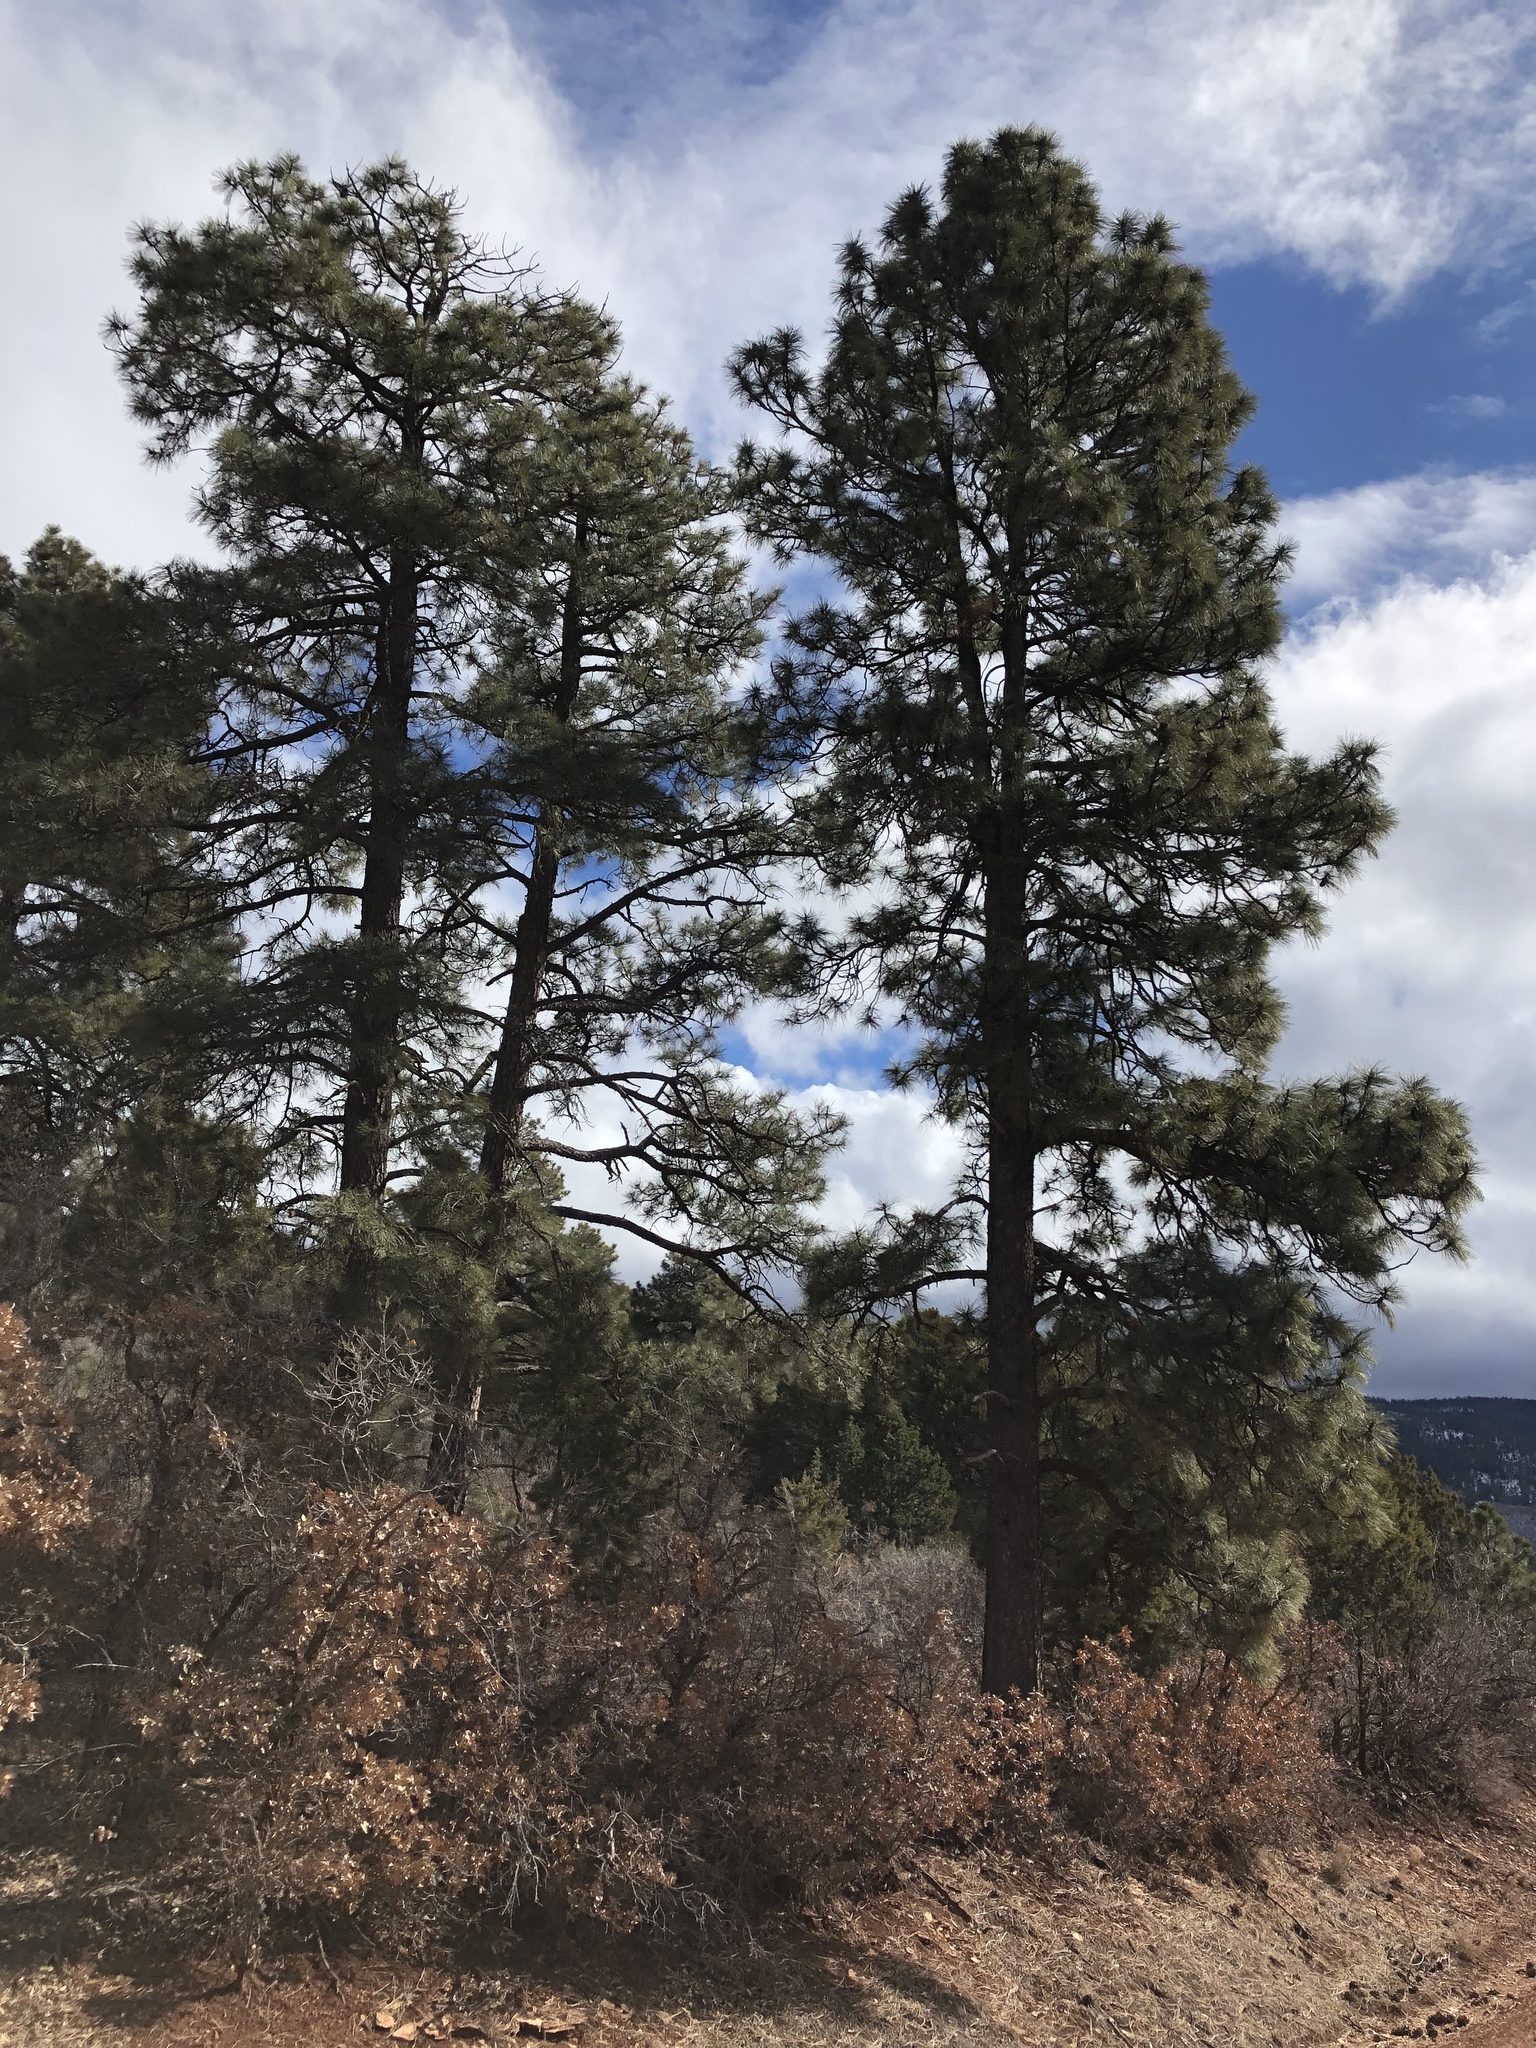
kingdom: Plantae
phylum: Tracheophyta
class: Pinopsida
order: Pinales
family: Pinaceae
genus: Pinus
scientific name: Pinus ponderosa
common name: Western yellow-pine
